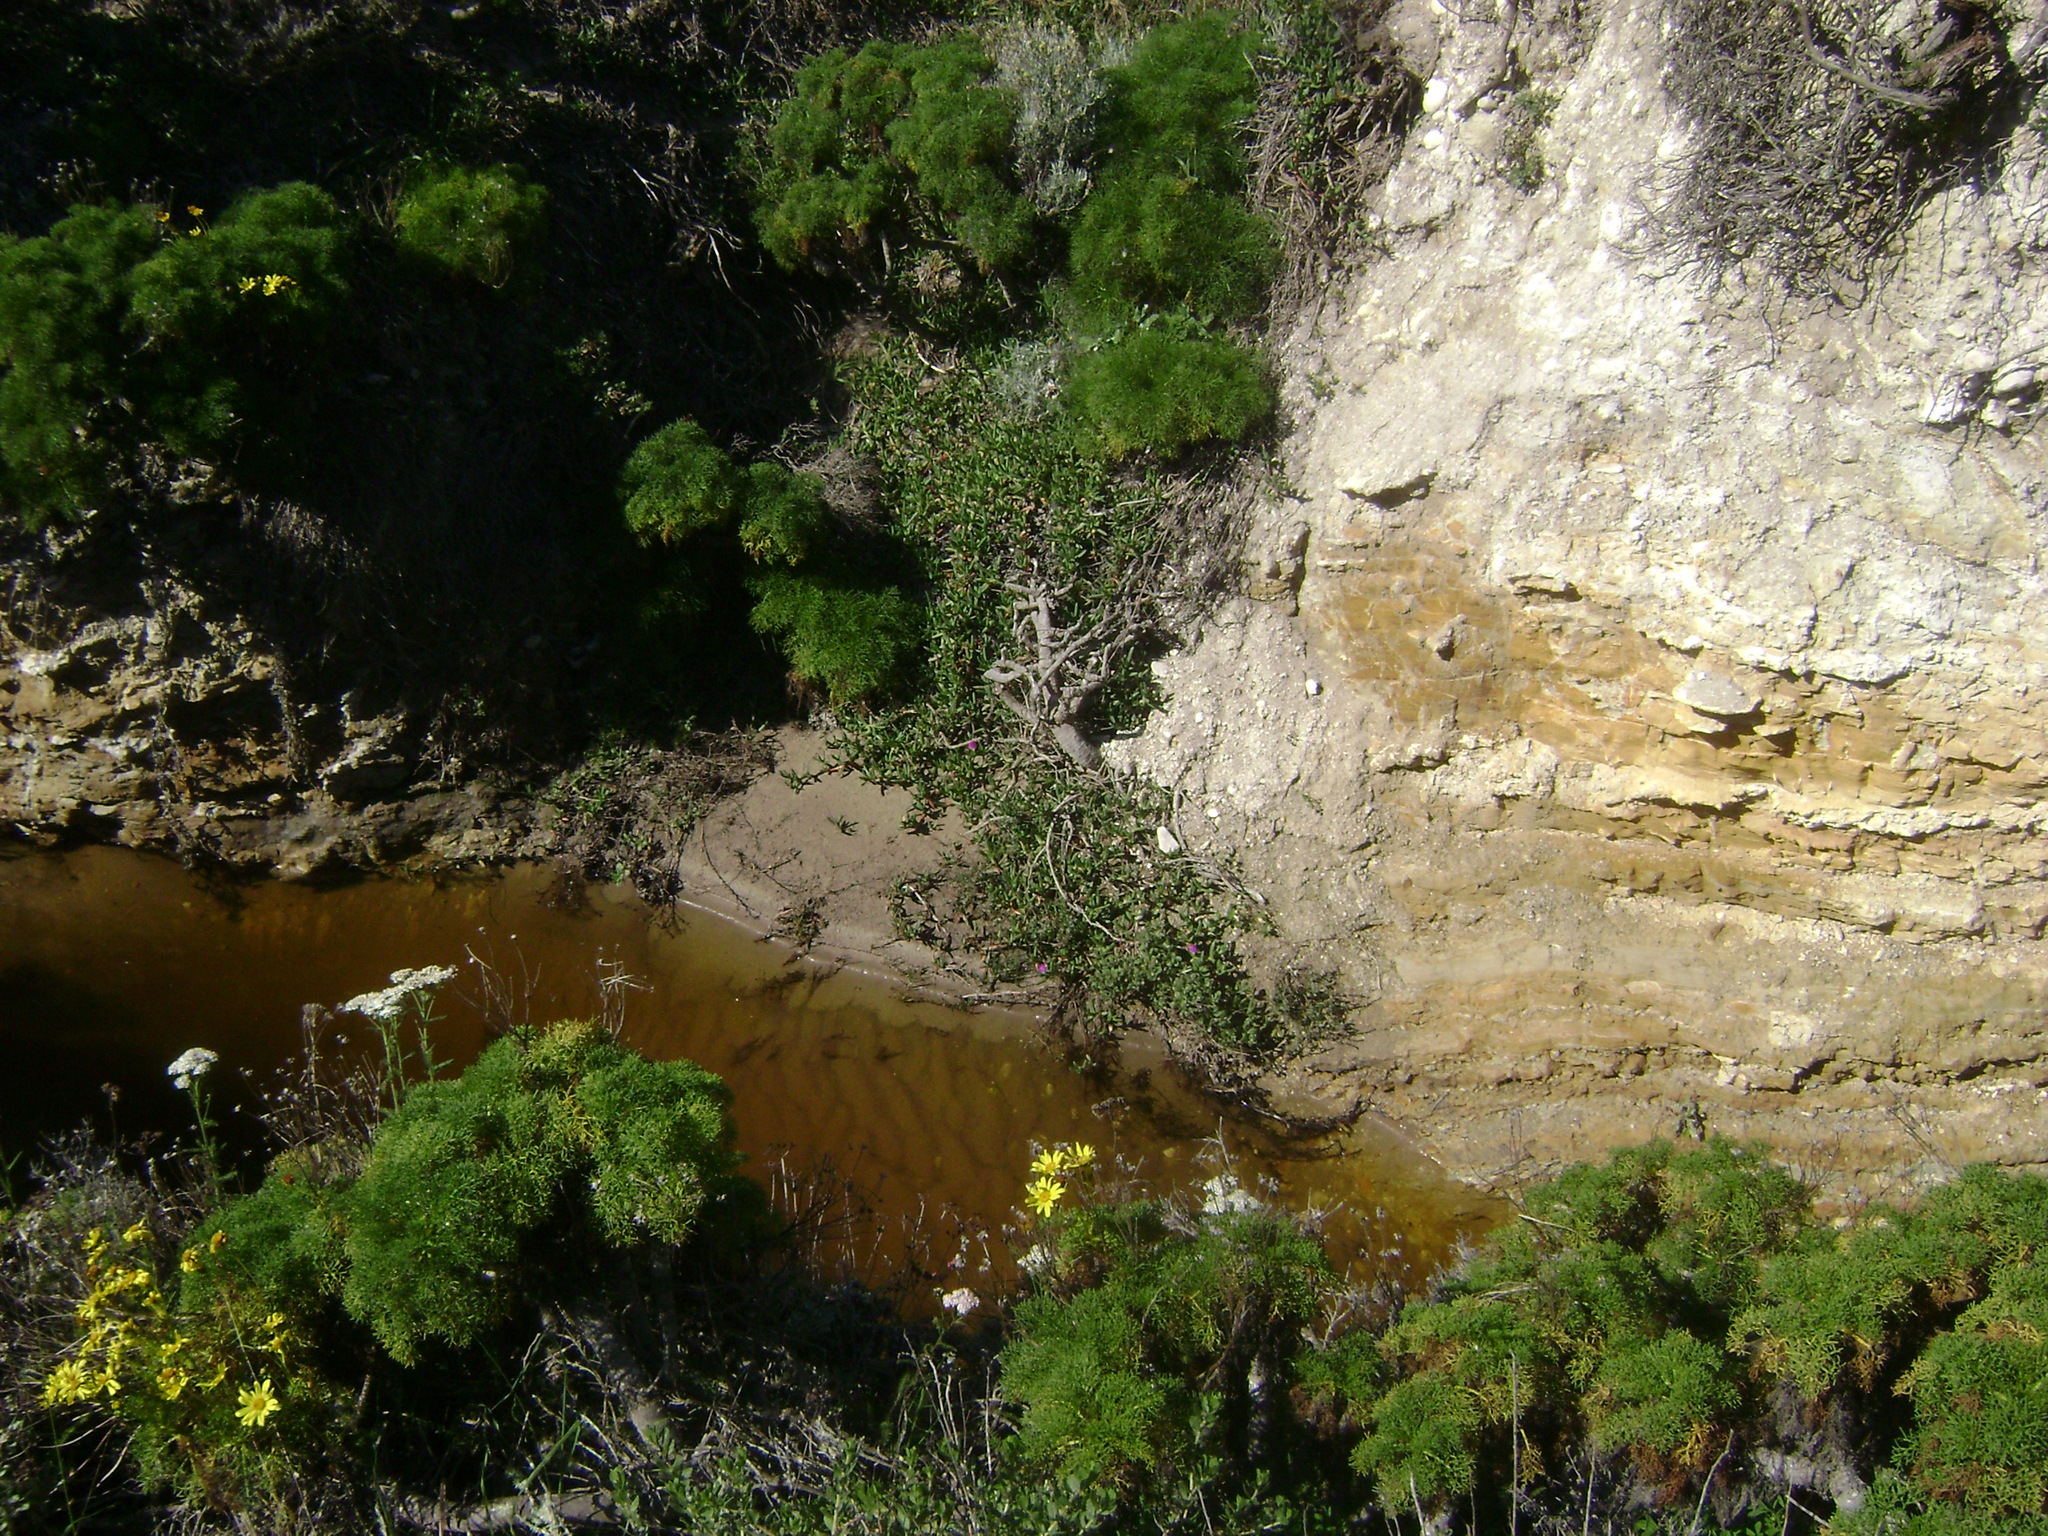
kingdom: Plantae
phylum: Tracheophyta
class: Magnoliopsida
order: Asterales
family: Asteraceae
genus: Coreopsis
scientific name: Coreopsis gigantea
